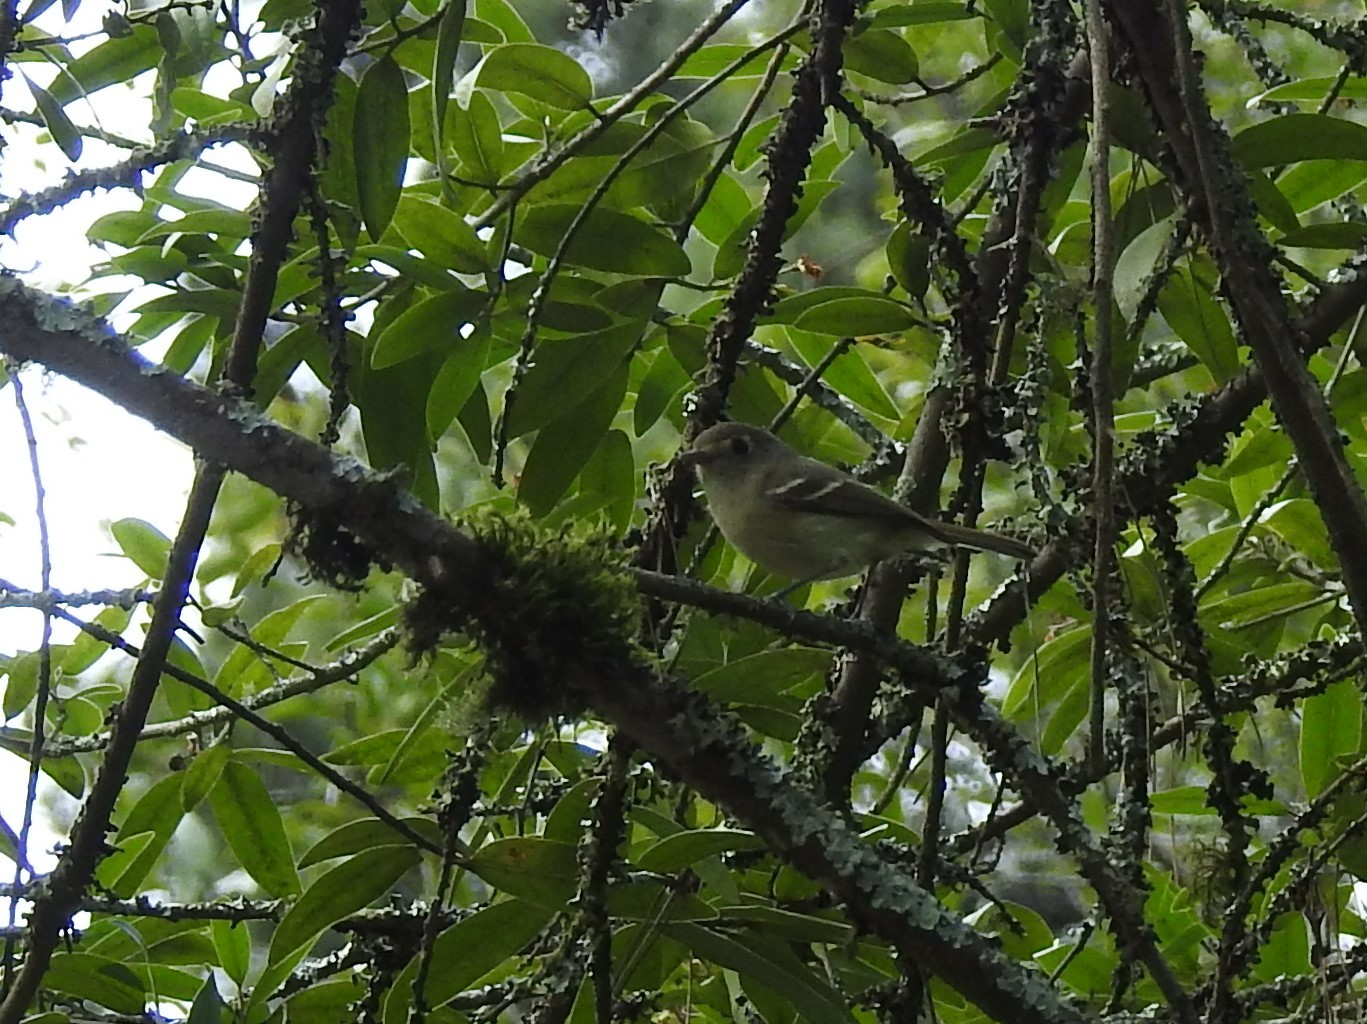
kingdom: Animalia
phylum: Chordata
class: Aves
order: Passeriformes
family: Vireonidae
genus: Vireo
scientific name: Vireo huttoni
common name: Hutton's vireo
